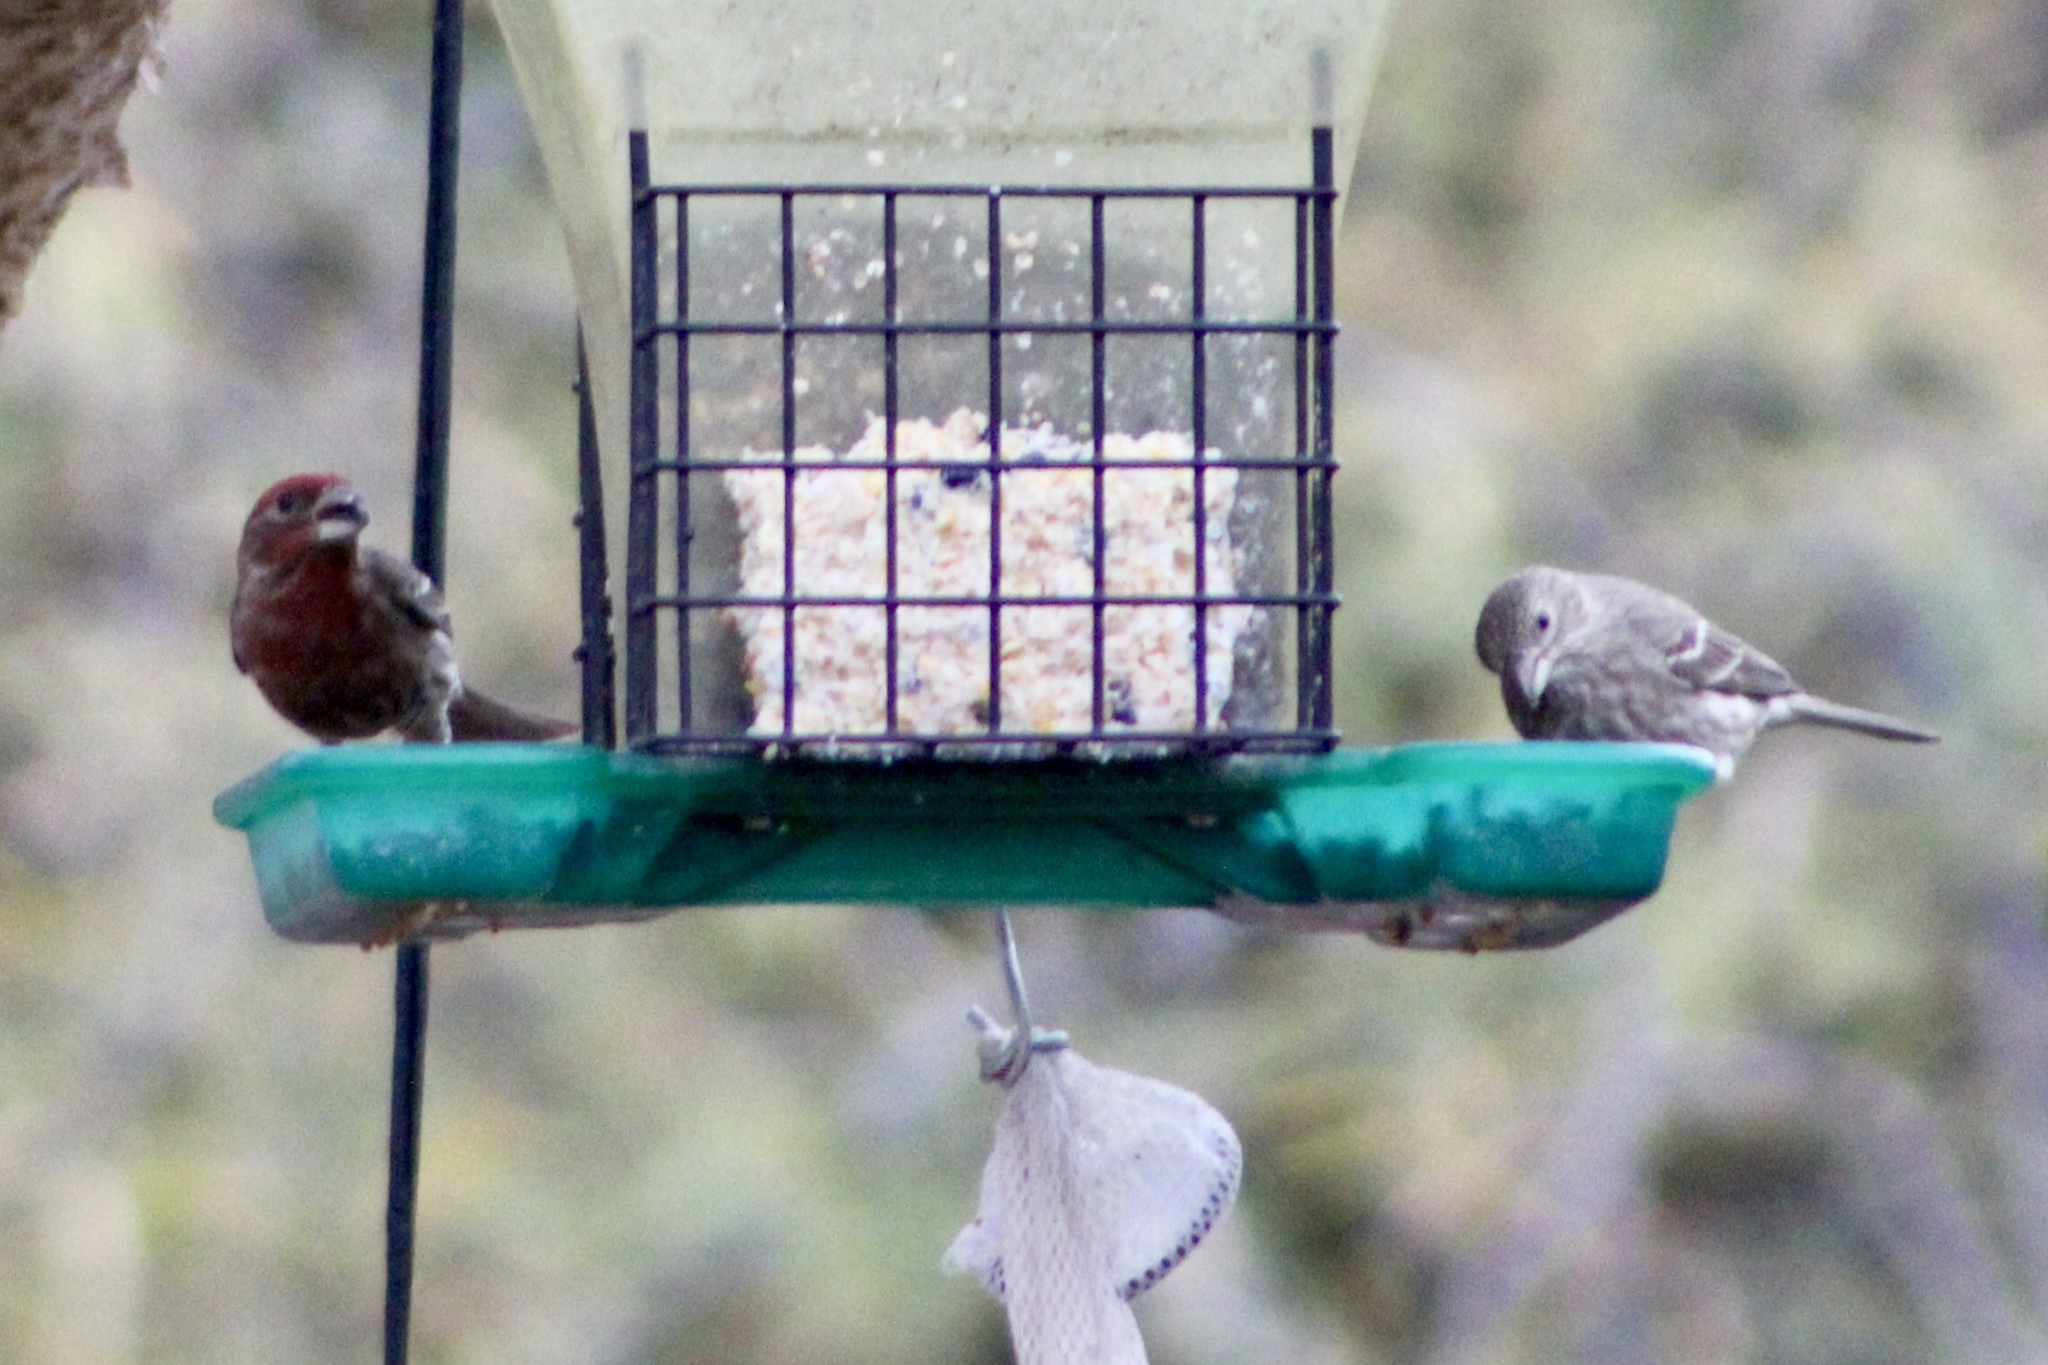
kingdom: Animalia
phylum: Chordata
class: Aves
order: Passeriformes
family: Fringillidae
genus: Haemorhous
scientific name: Haemorhous mexicanus
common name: House finch
